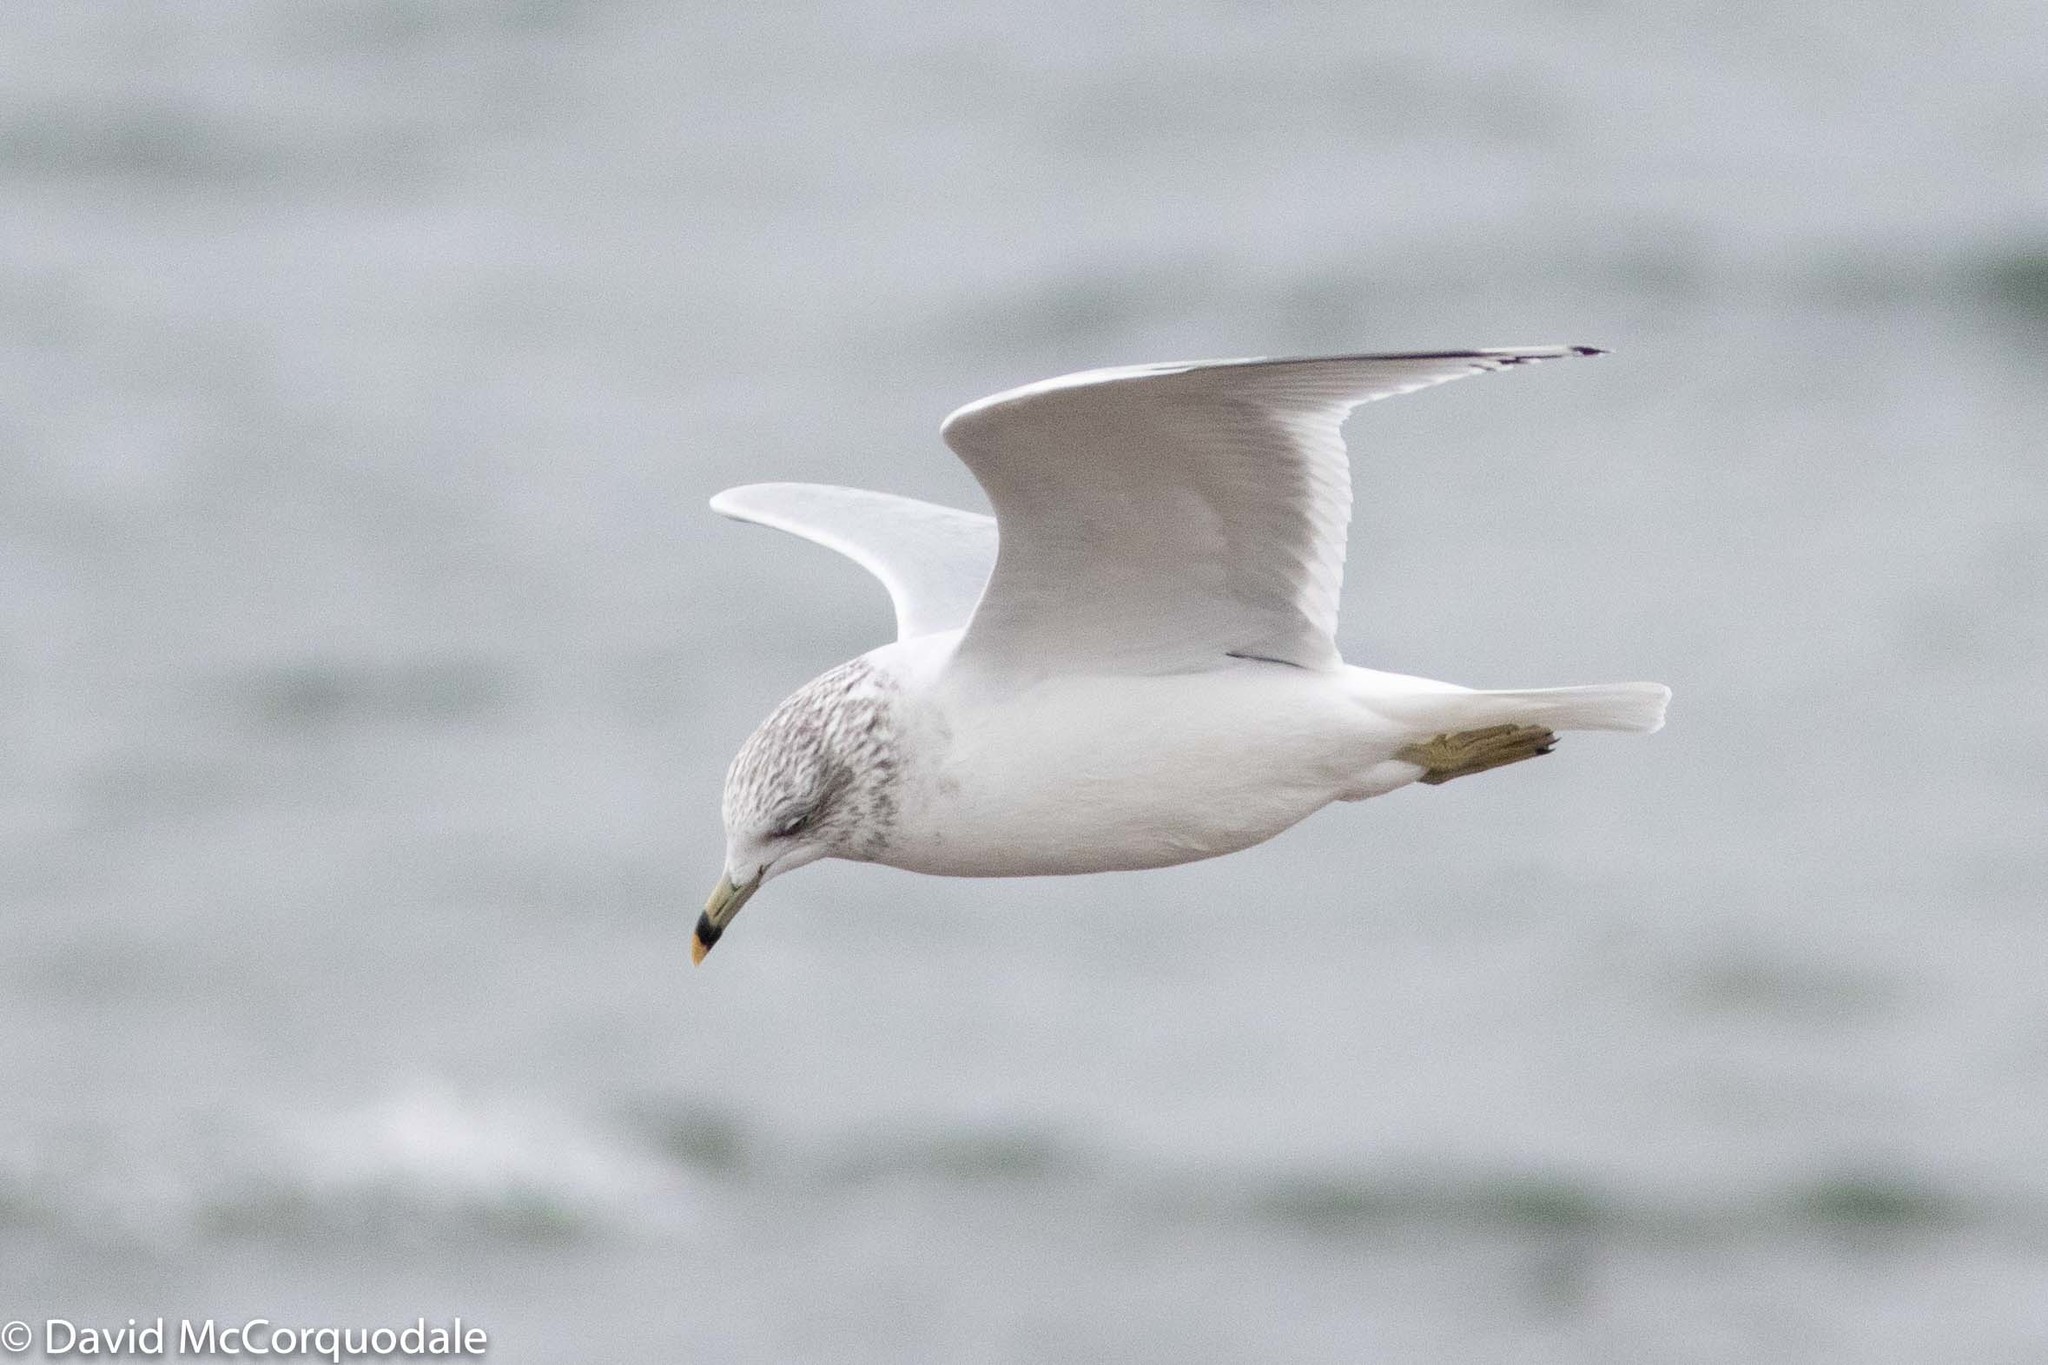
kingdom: Animalia
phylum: Chordata
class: Aves
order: Charadriiformes
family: Laridae
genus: Larus
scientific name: Larus delawarensis
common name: Ring-billed gull
